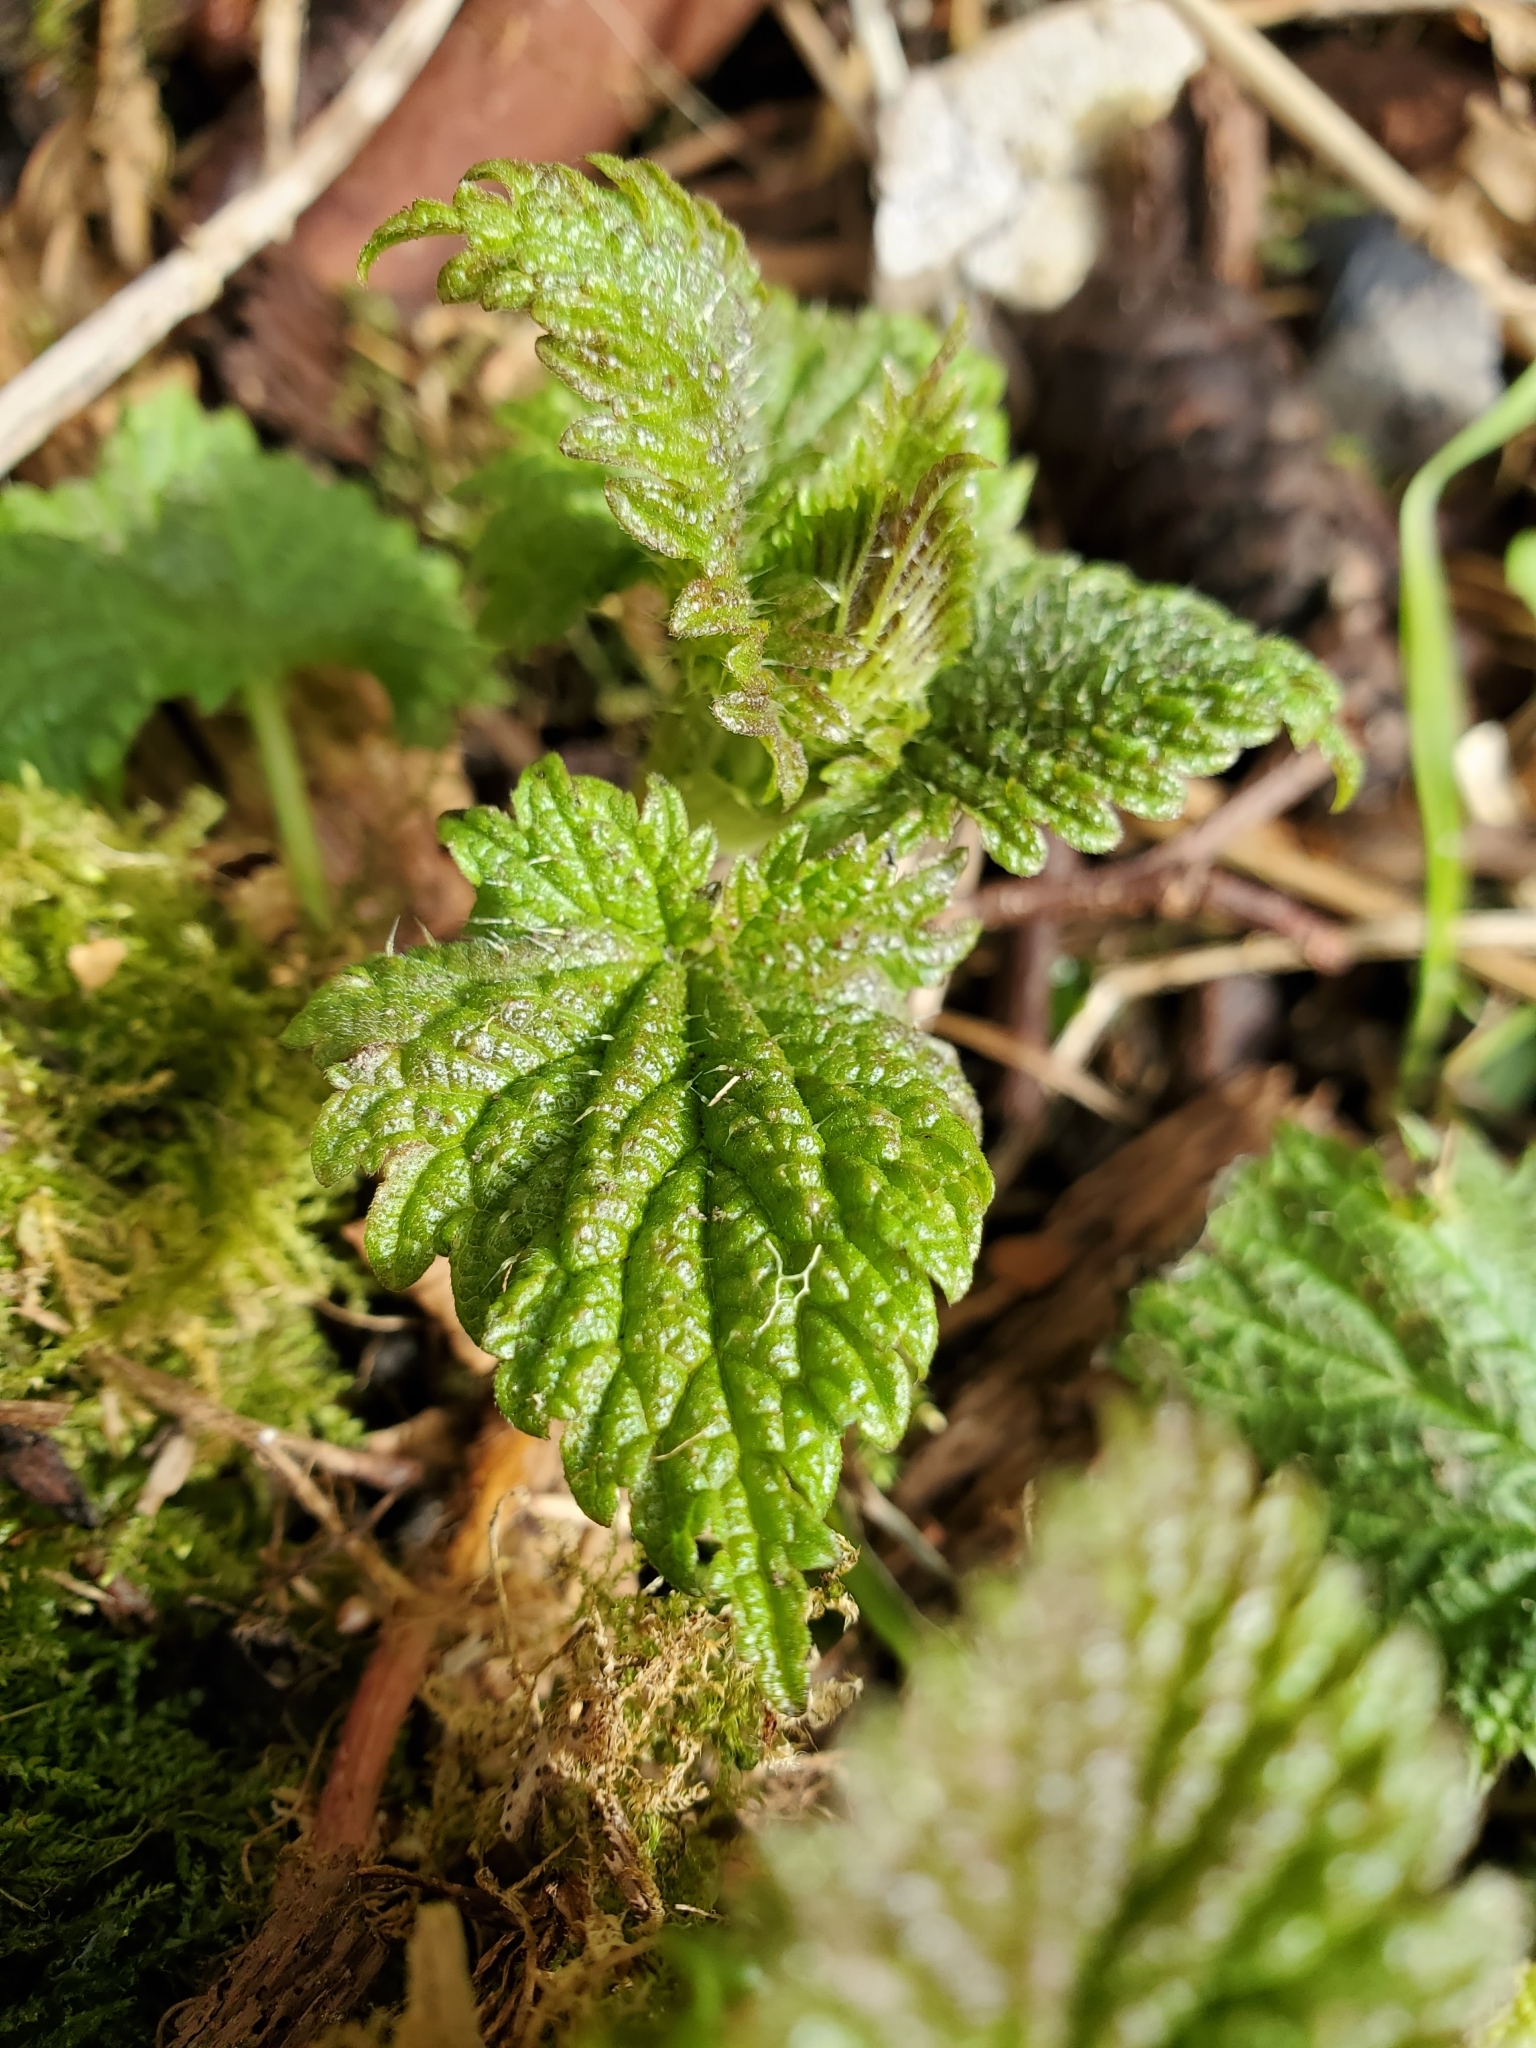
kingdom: Plantae
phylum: Tracheophyta
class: Magnoliopsida
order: Rosales
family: Urticaceae
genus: Urtica
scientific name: Urtica dioica
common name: Common nettle
